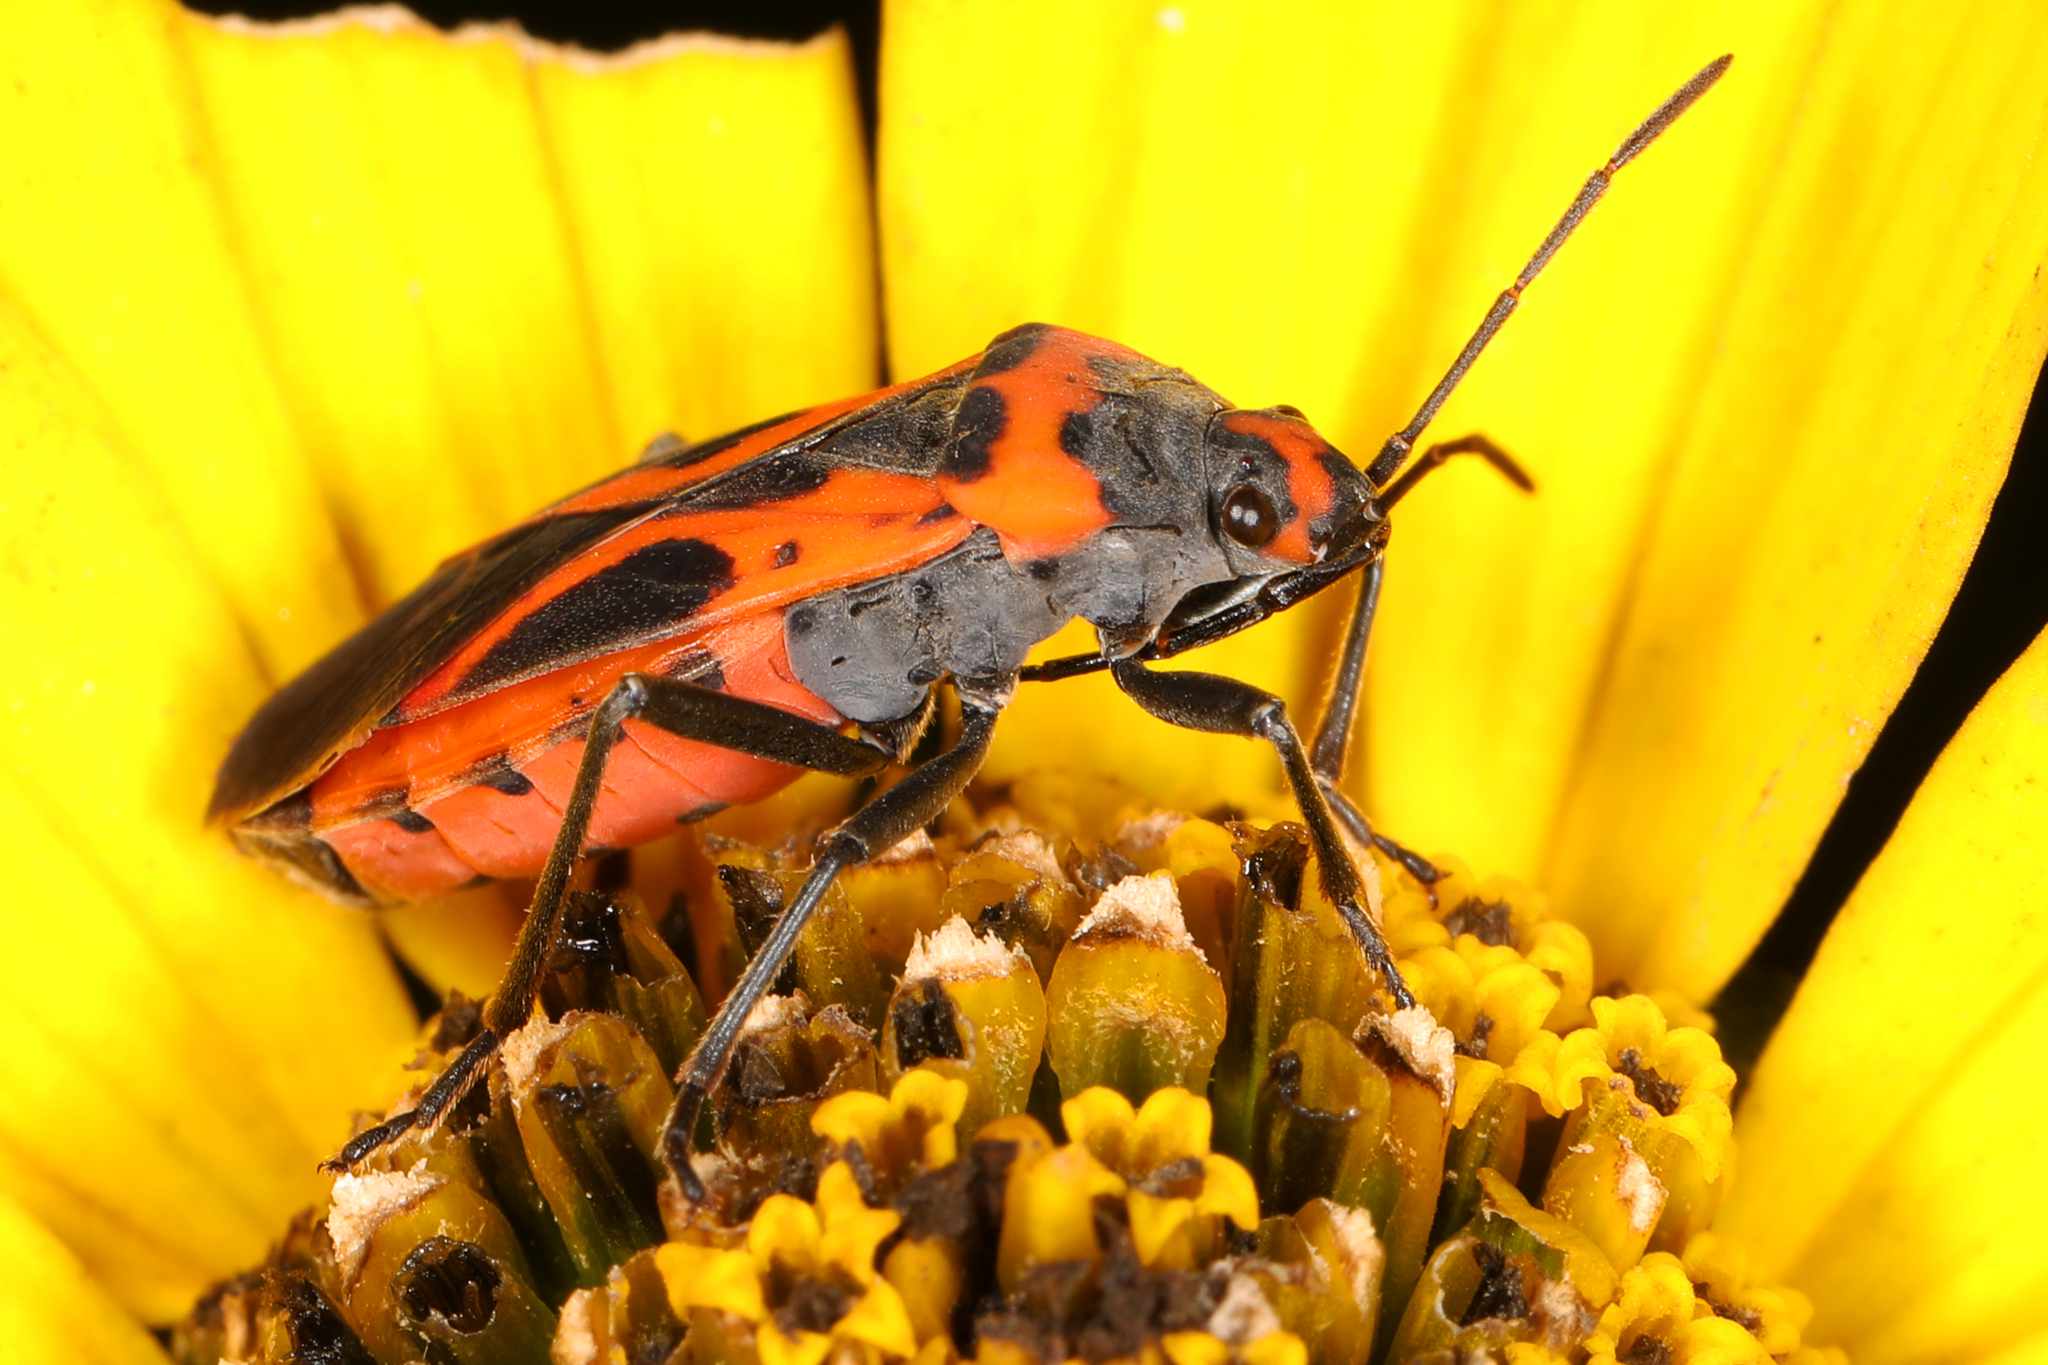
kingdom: Animalia
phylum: Arthropoda
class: Insecta
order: Hemiptera
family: Lygaeidae
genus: Lygaeus
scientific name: Lygaeus turcicus
